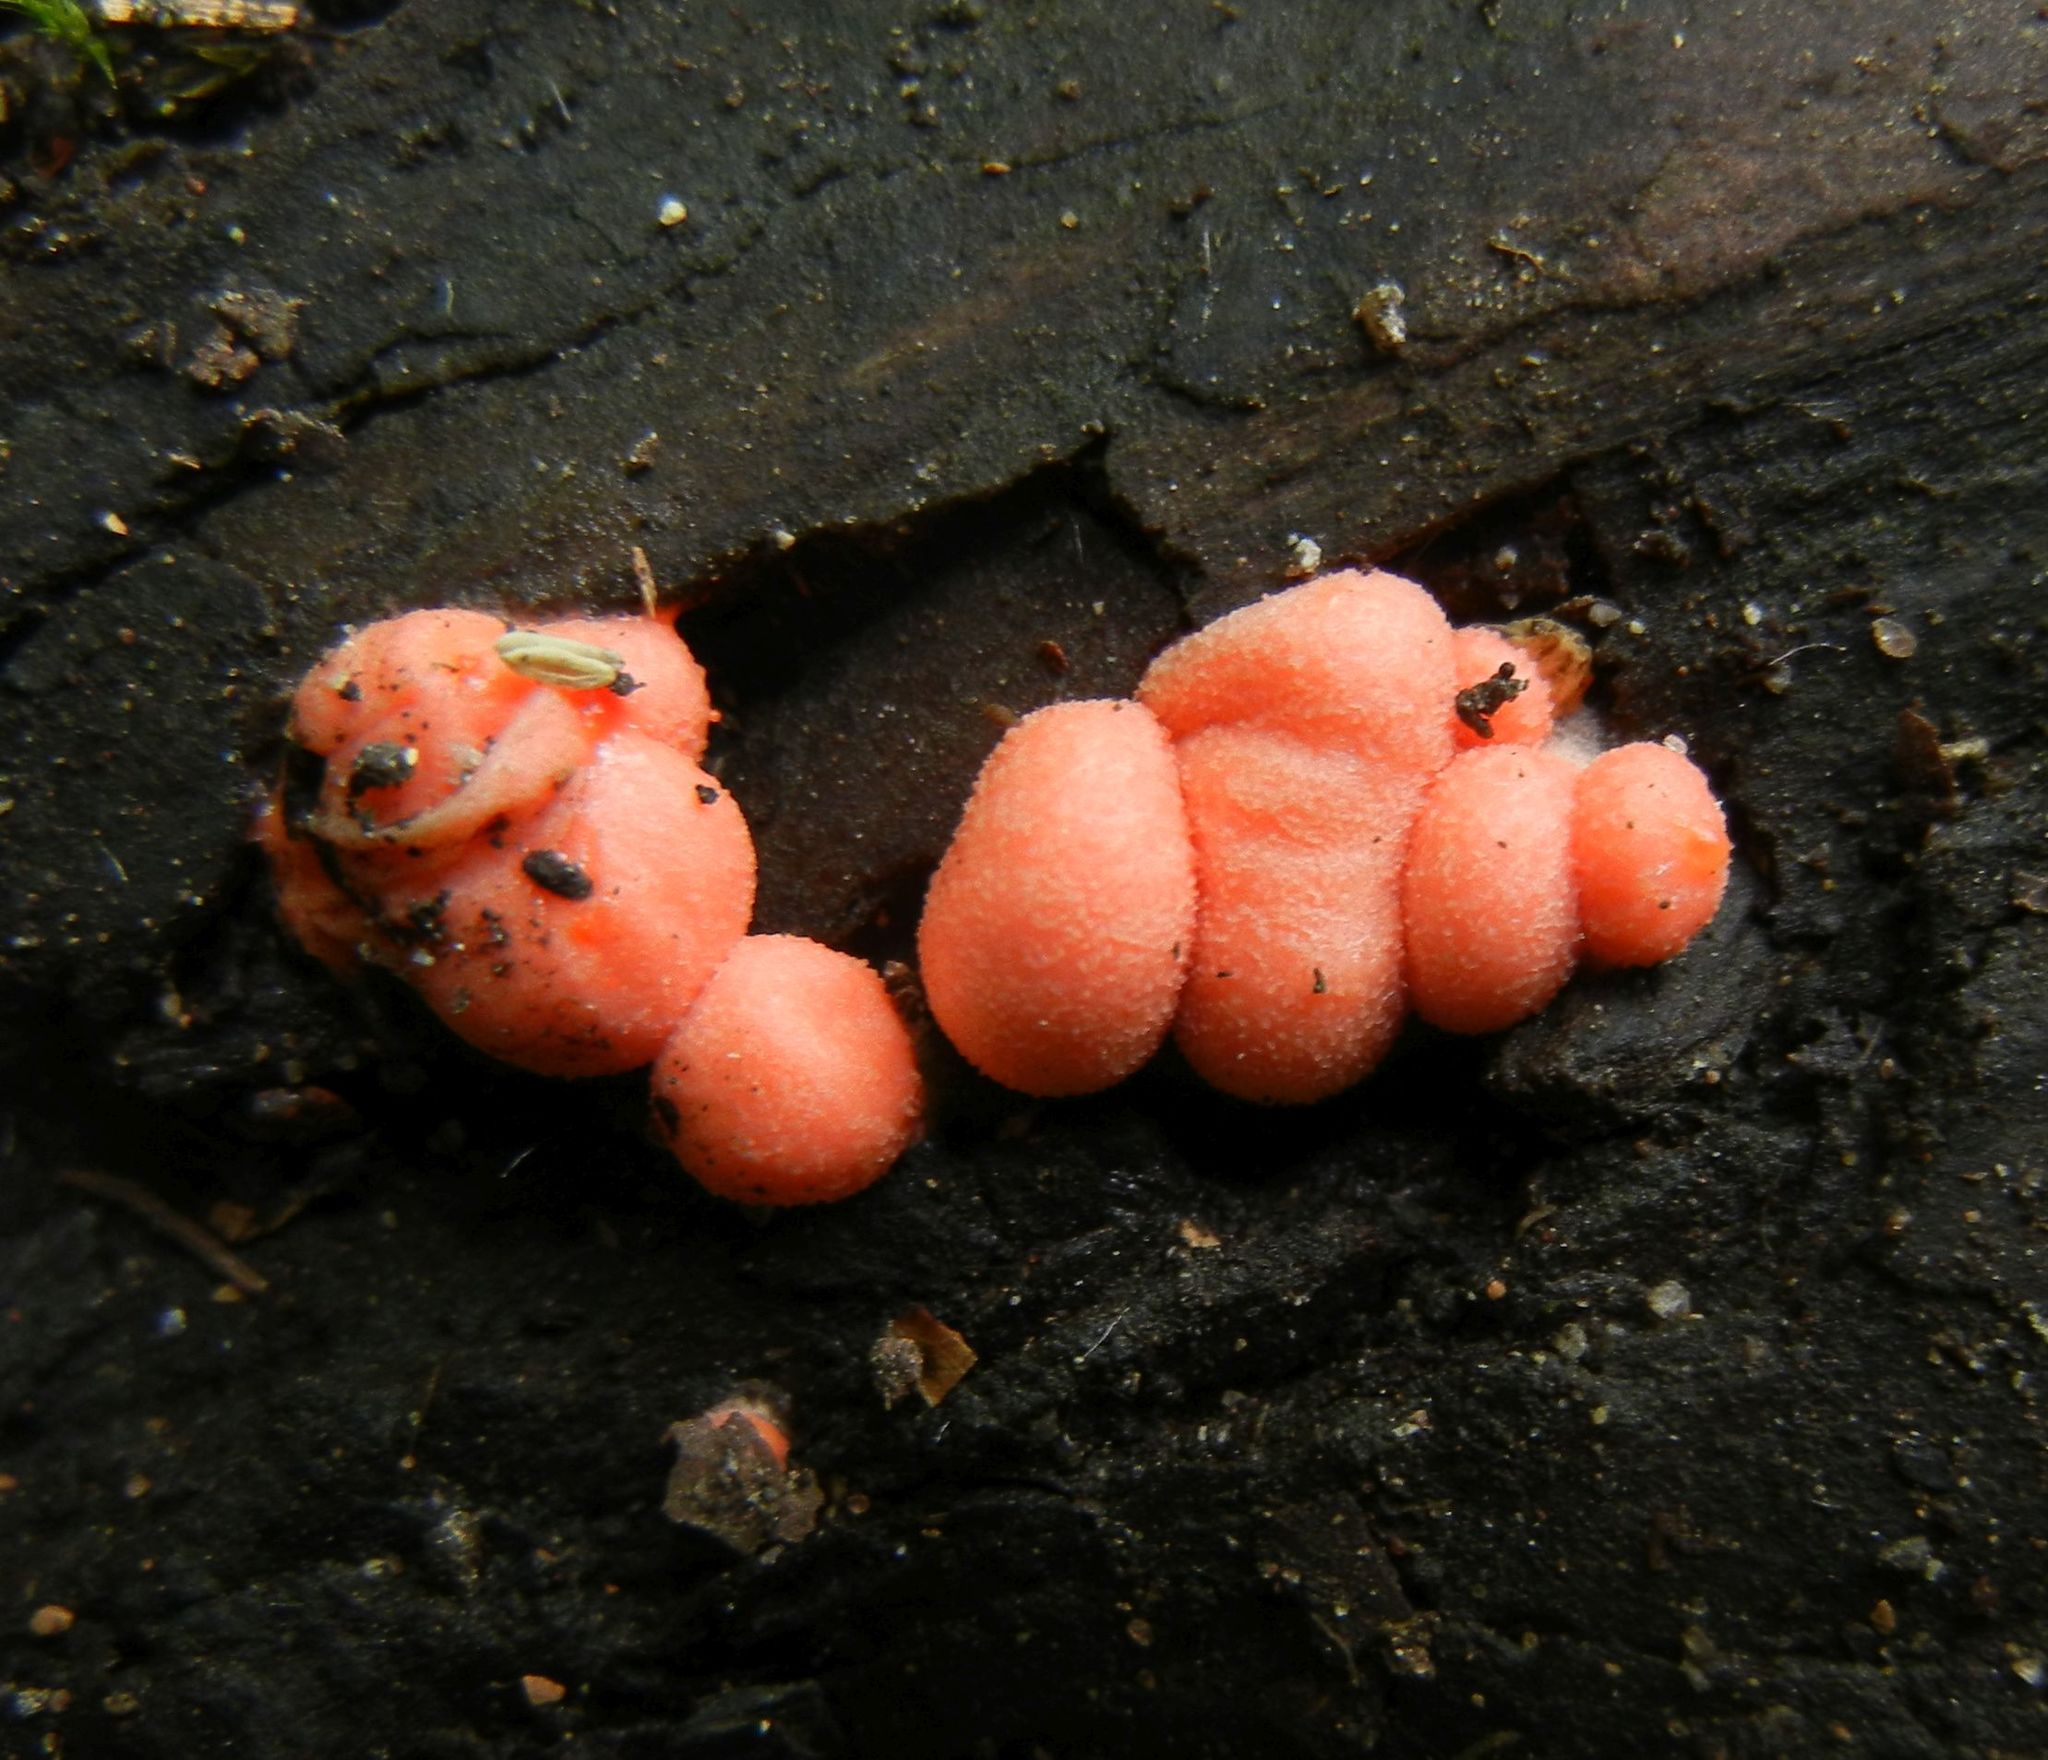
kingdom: Protozoa
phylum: Mycetozoa
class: Myxomycetes
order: Cribrariales
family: Tubiferaceae
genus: Lycogala
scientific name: Lycogala epidendrum
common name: Wolf's milk
